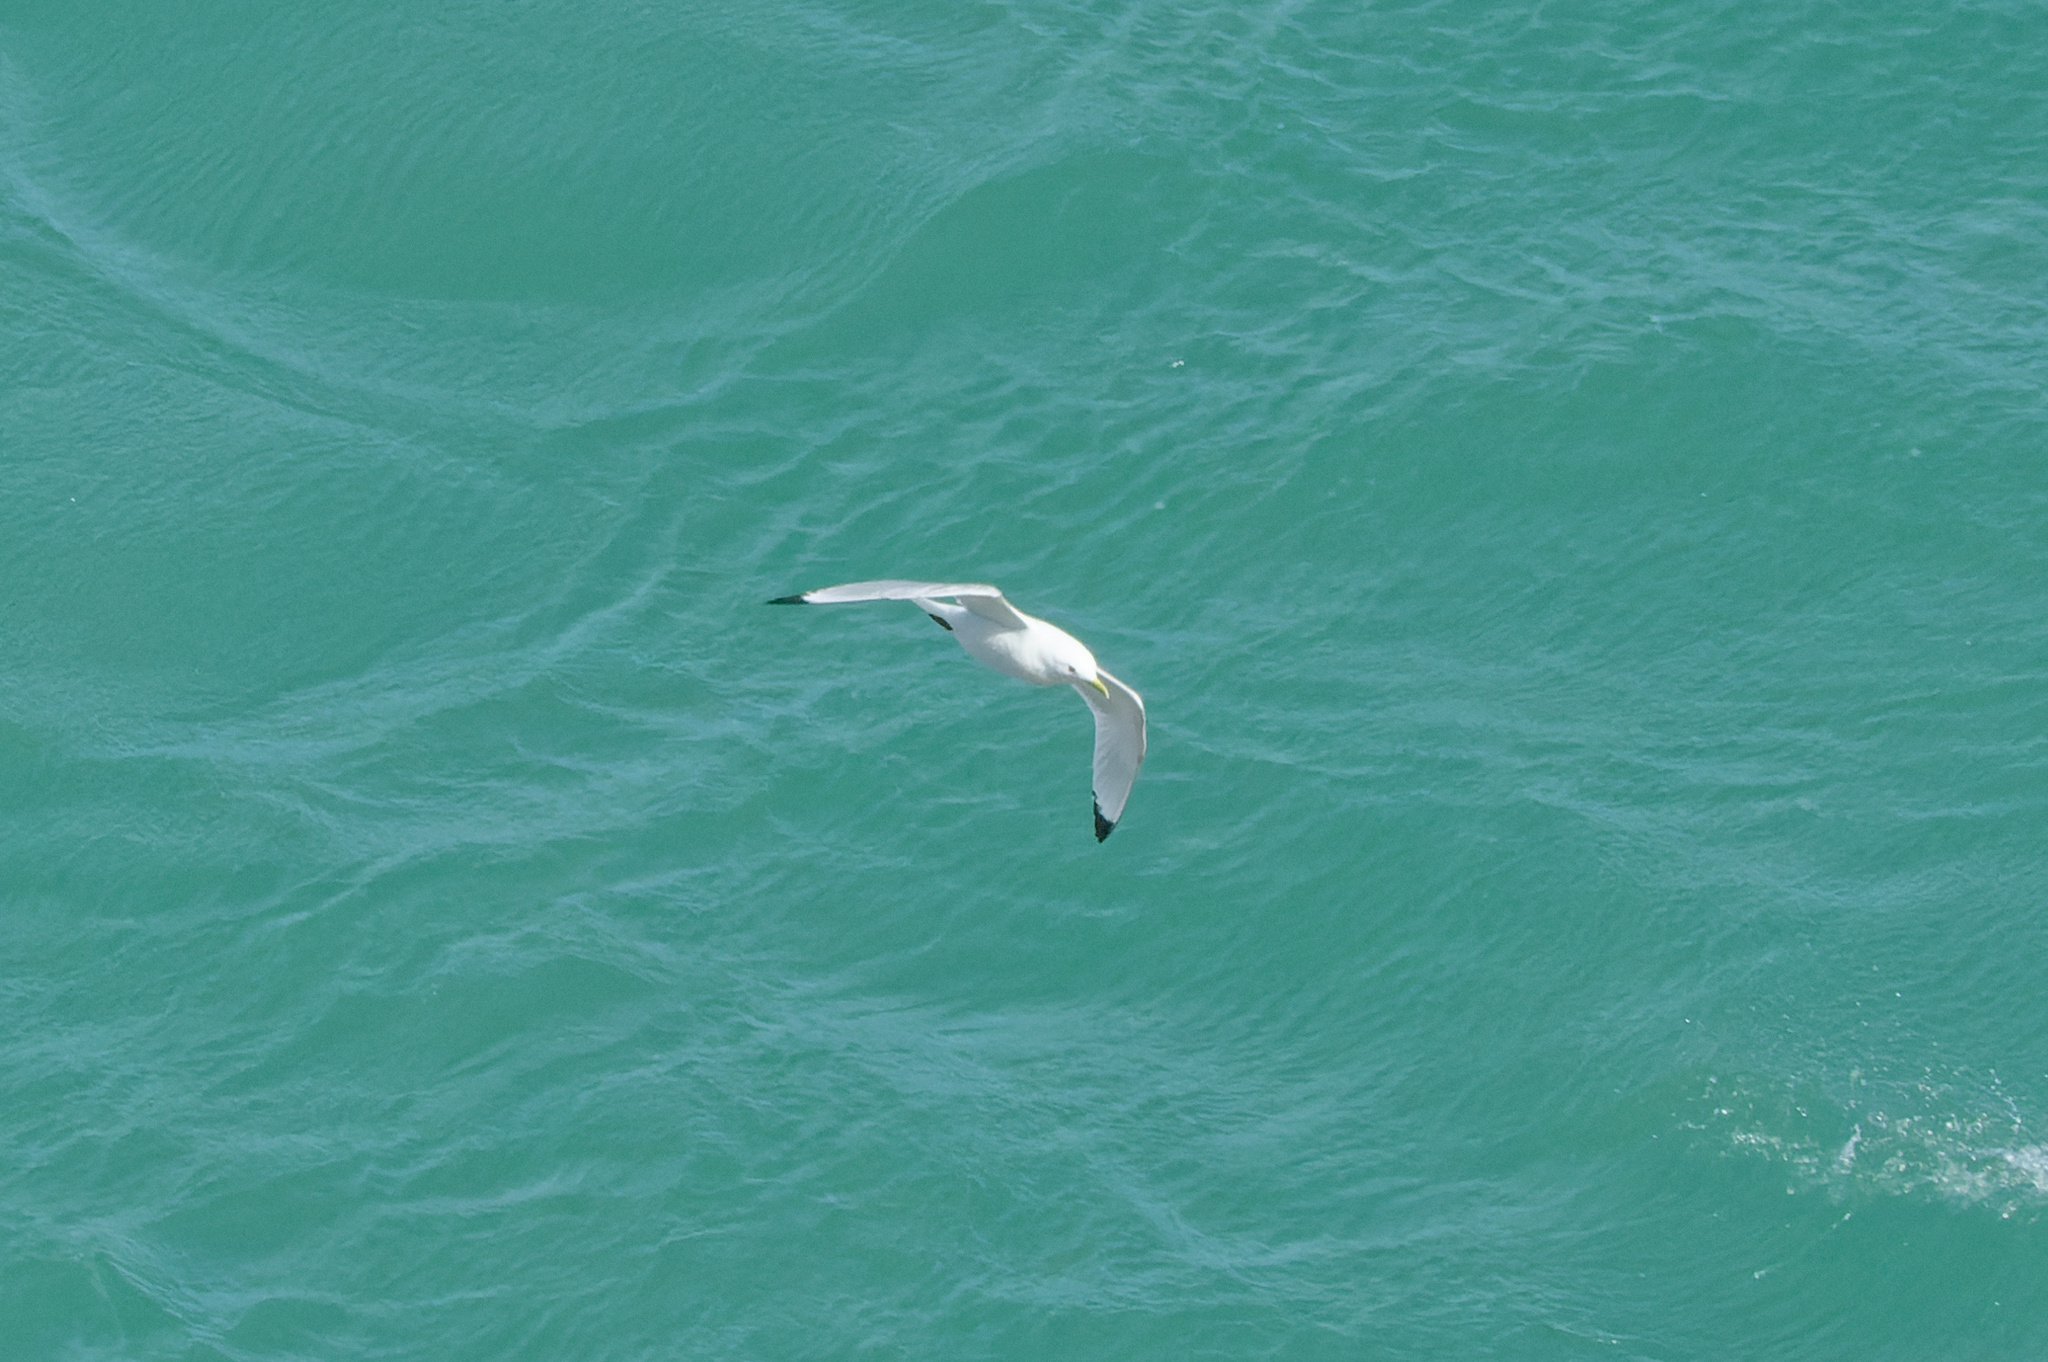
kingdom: Animalia
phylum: Chordata
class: Aves
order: Charadriiformes
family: Laridae
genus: Rissa
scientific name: Rissa tridactyla
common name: Black-legged kittiwake
